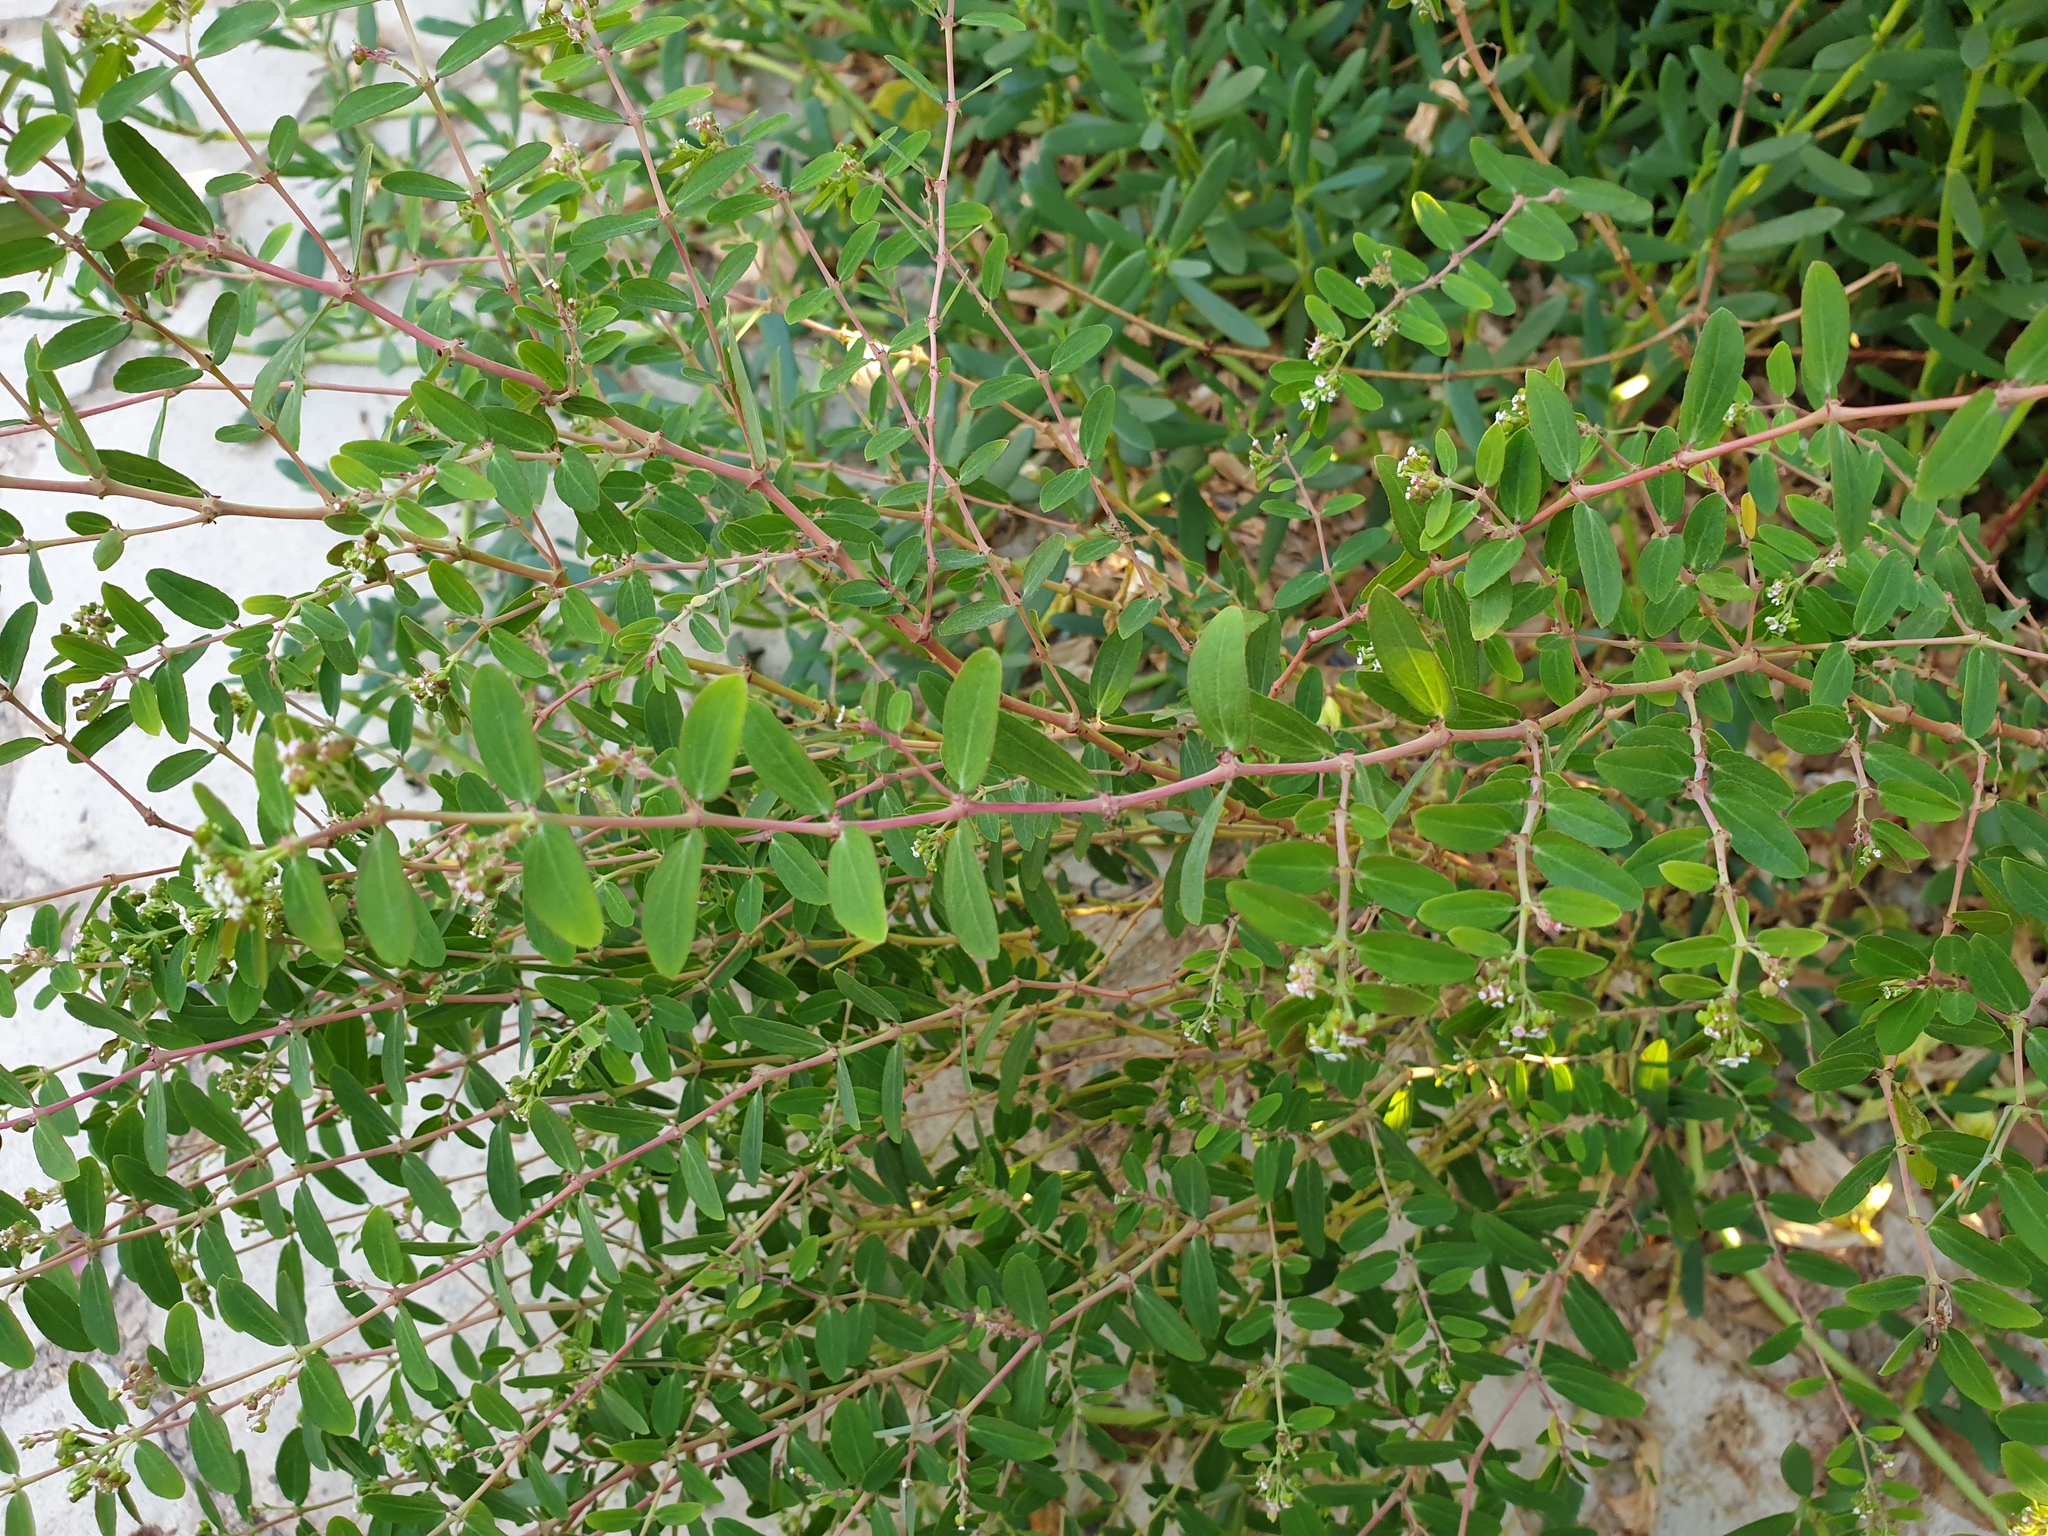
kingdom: Plantae
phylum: Tracheophyta
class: Magnoliopsida
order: Malpighiales
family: Euphorbiaceae
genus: Euphorbia
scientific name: Euphorbia hypericifolia
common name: Graceful sandmat
